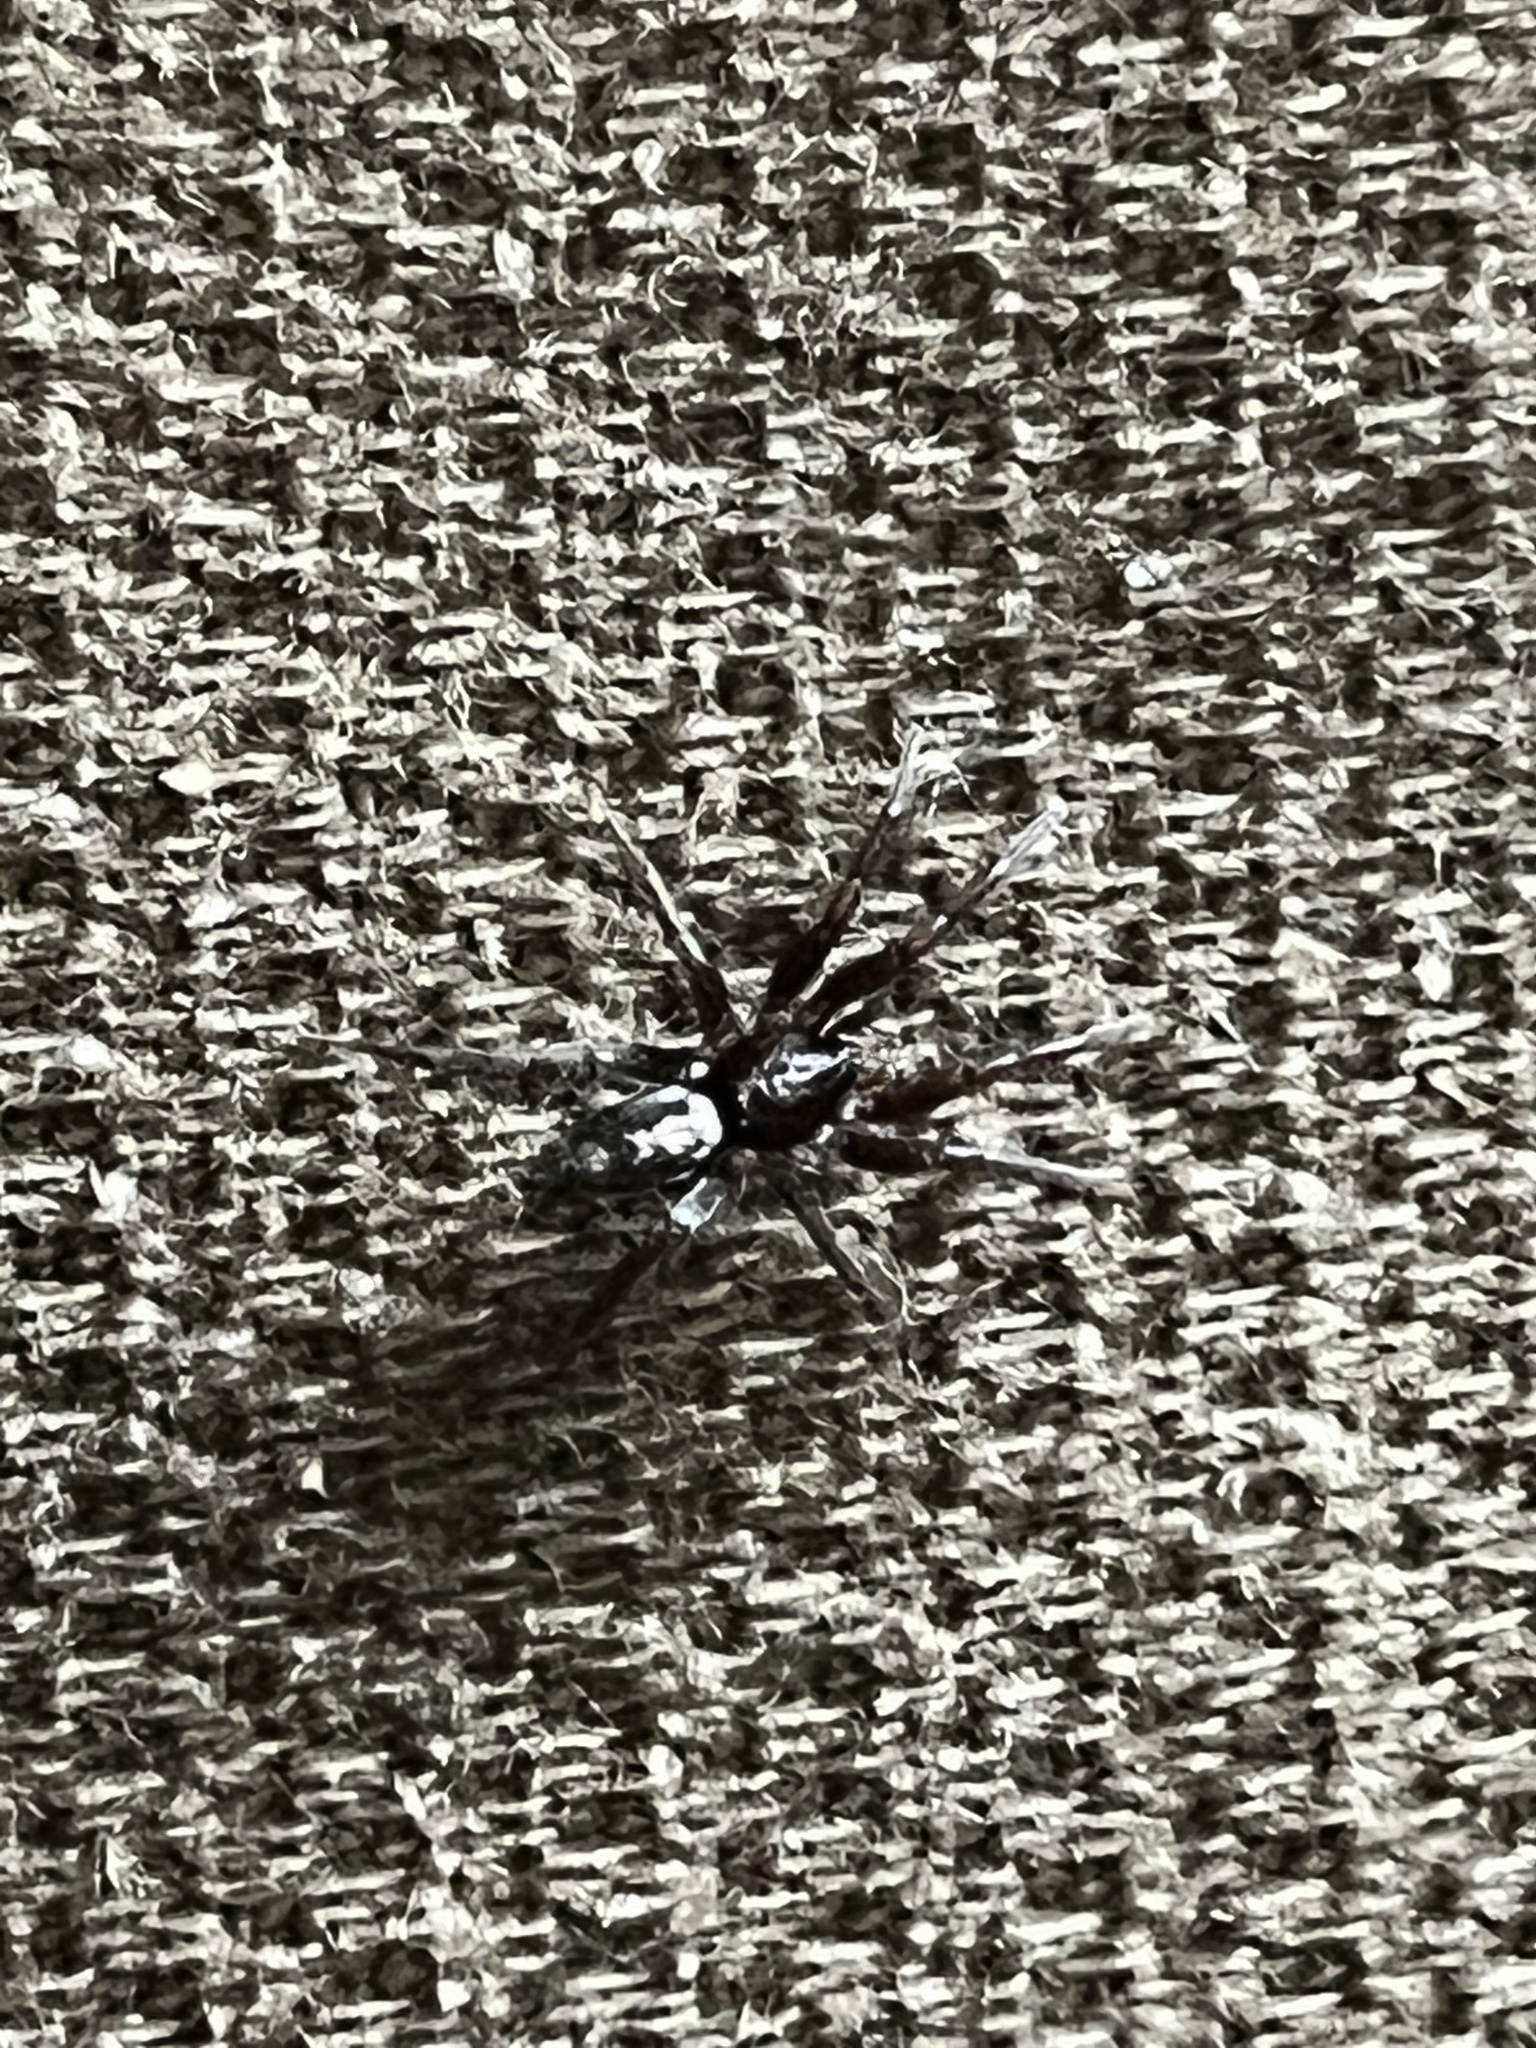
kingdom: Animalia
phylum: Arthropoda
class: Arachnida
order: Araneae
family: Gnaphosidae
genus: Herpyllus
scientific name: Herpyllus ecclesiasticus
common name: Eastern parson spider
